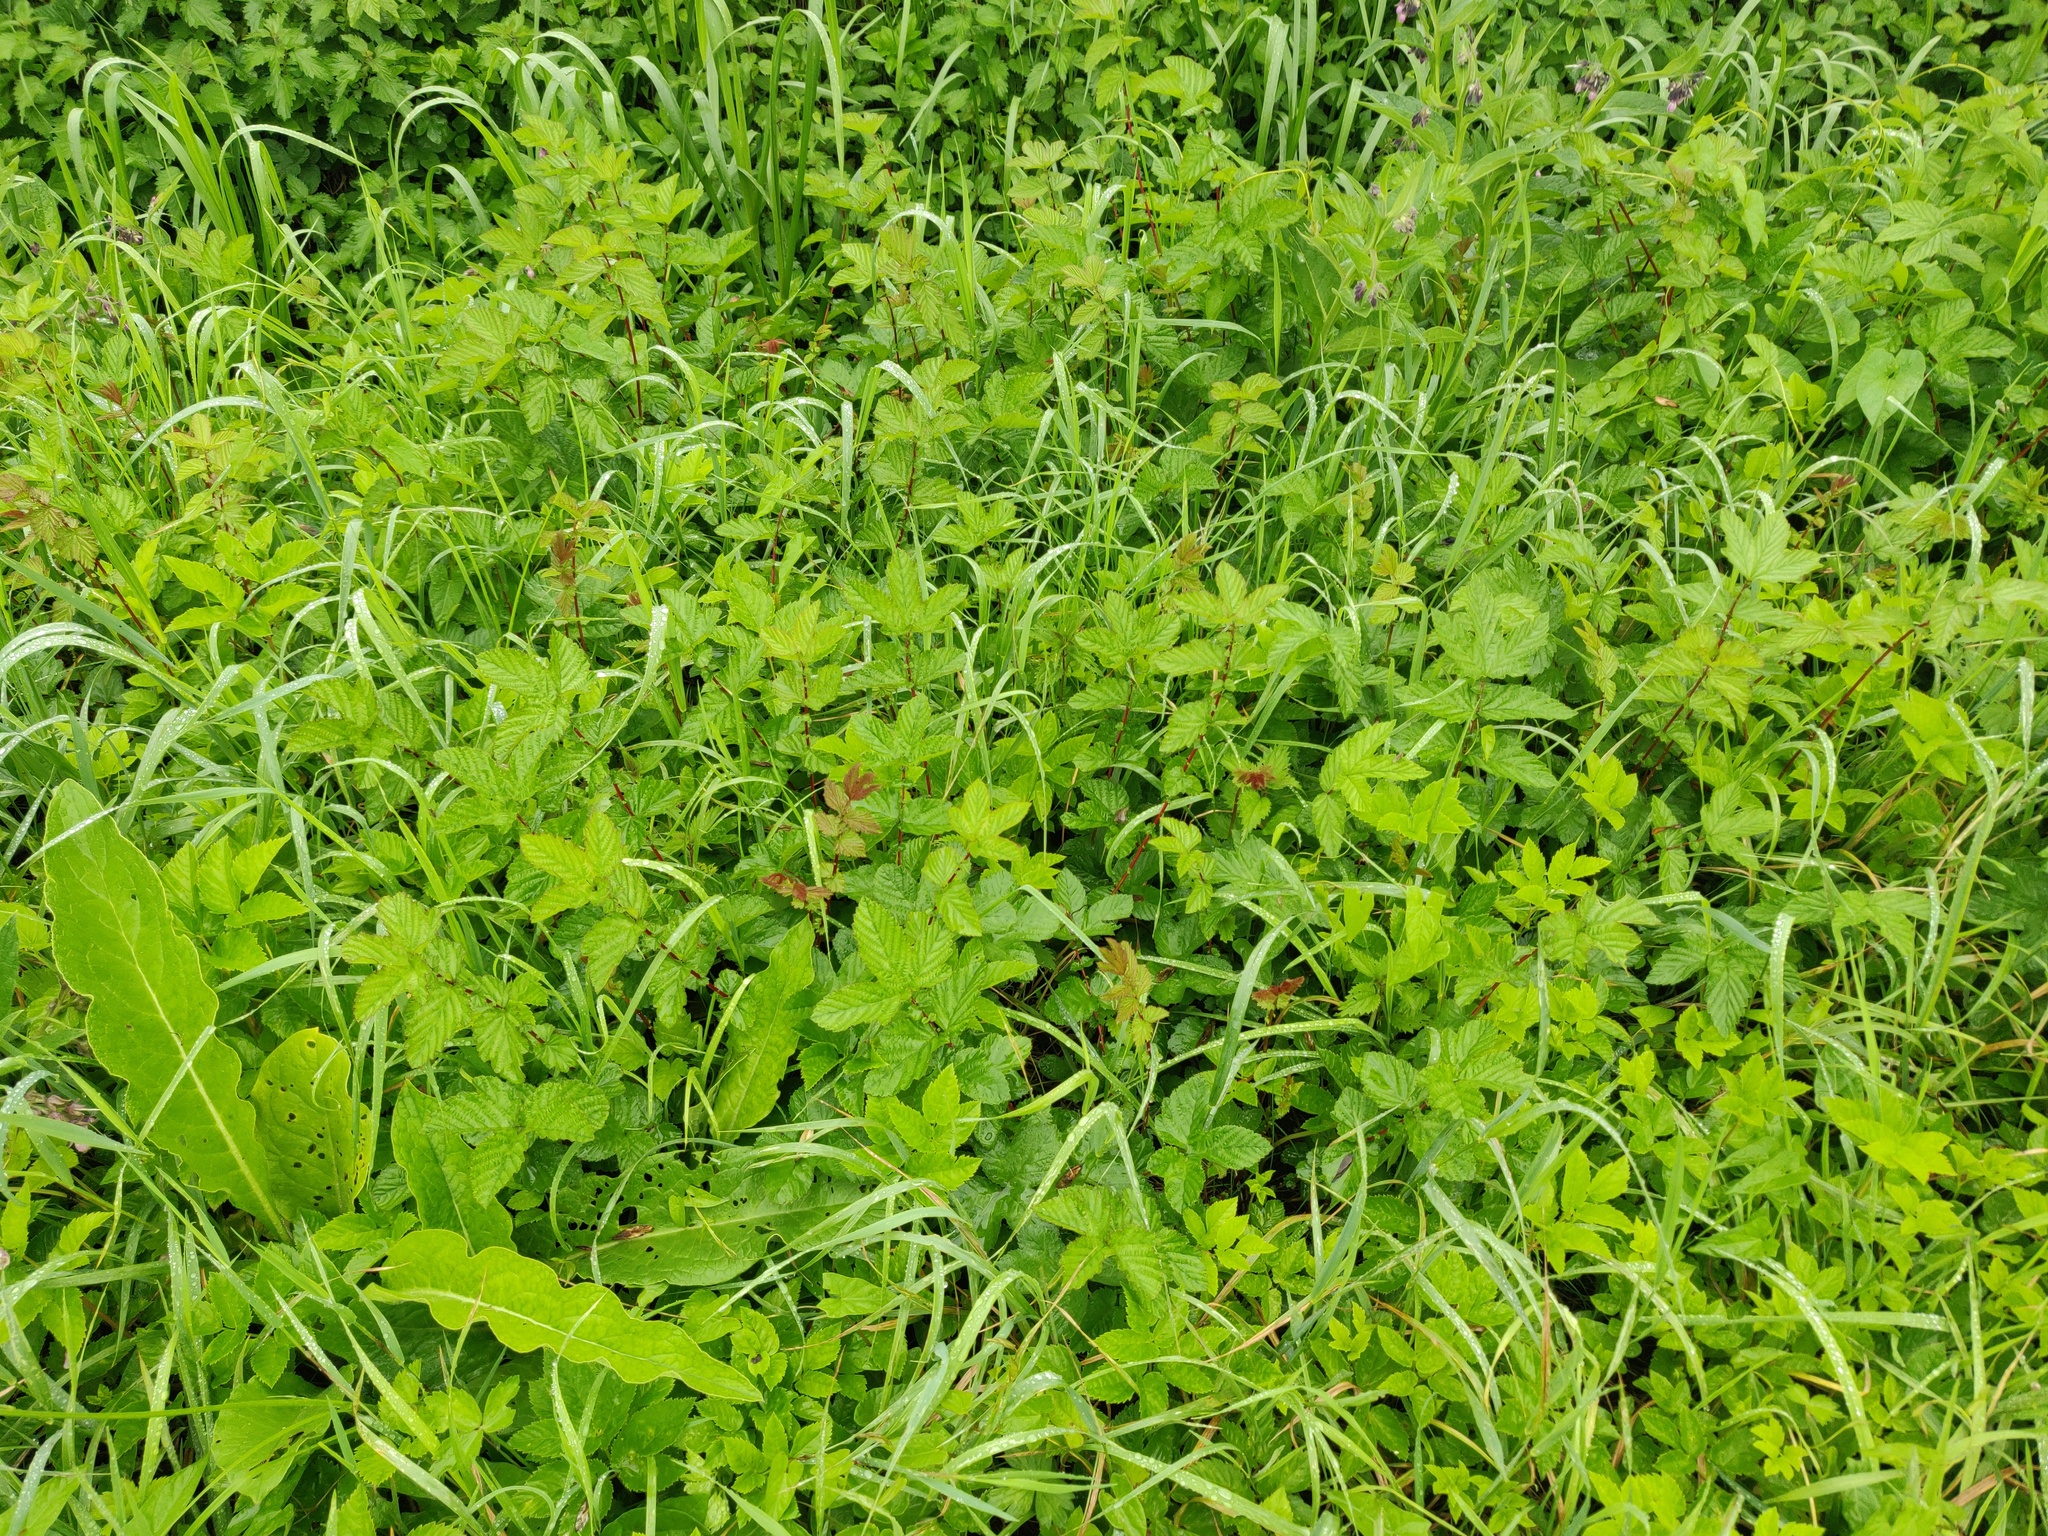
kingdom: Plantae
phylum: Tracheophyta
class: Magnoliopsida
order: Rosales
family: Rosaceae
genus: Filipendula
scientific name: Filipendula ulmaria
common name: Meadowsweet
